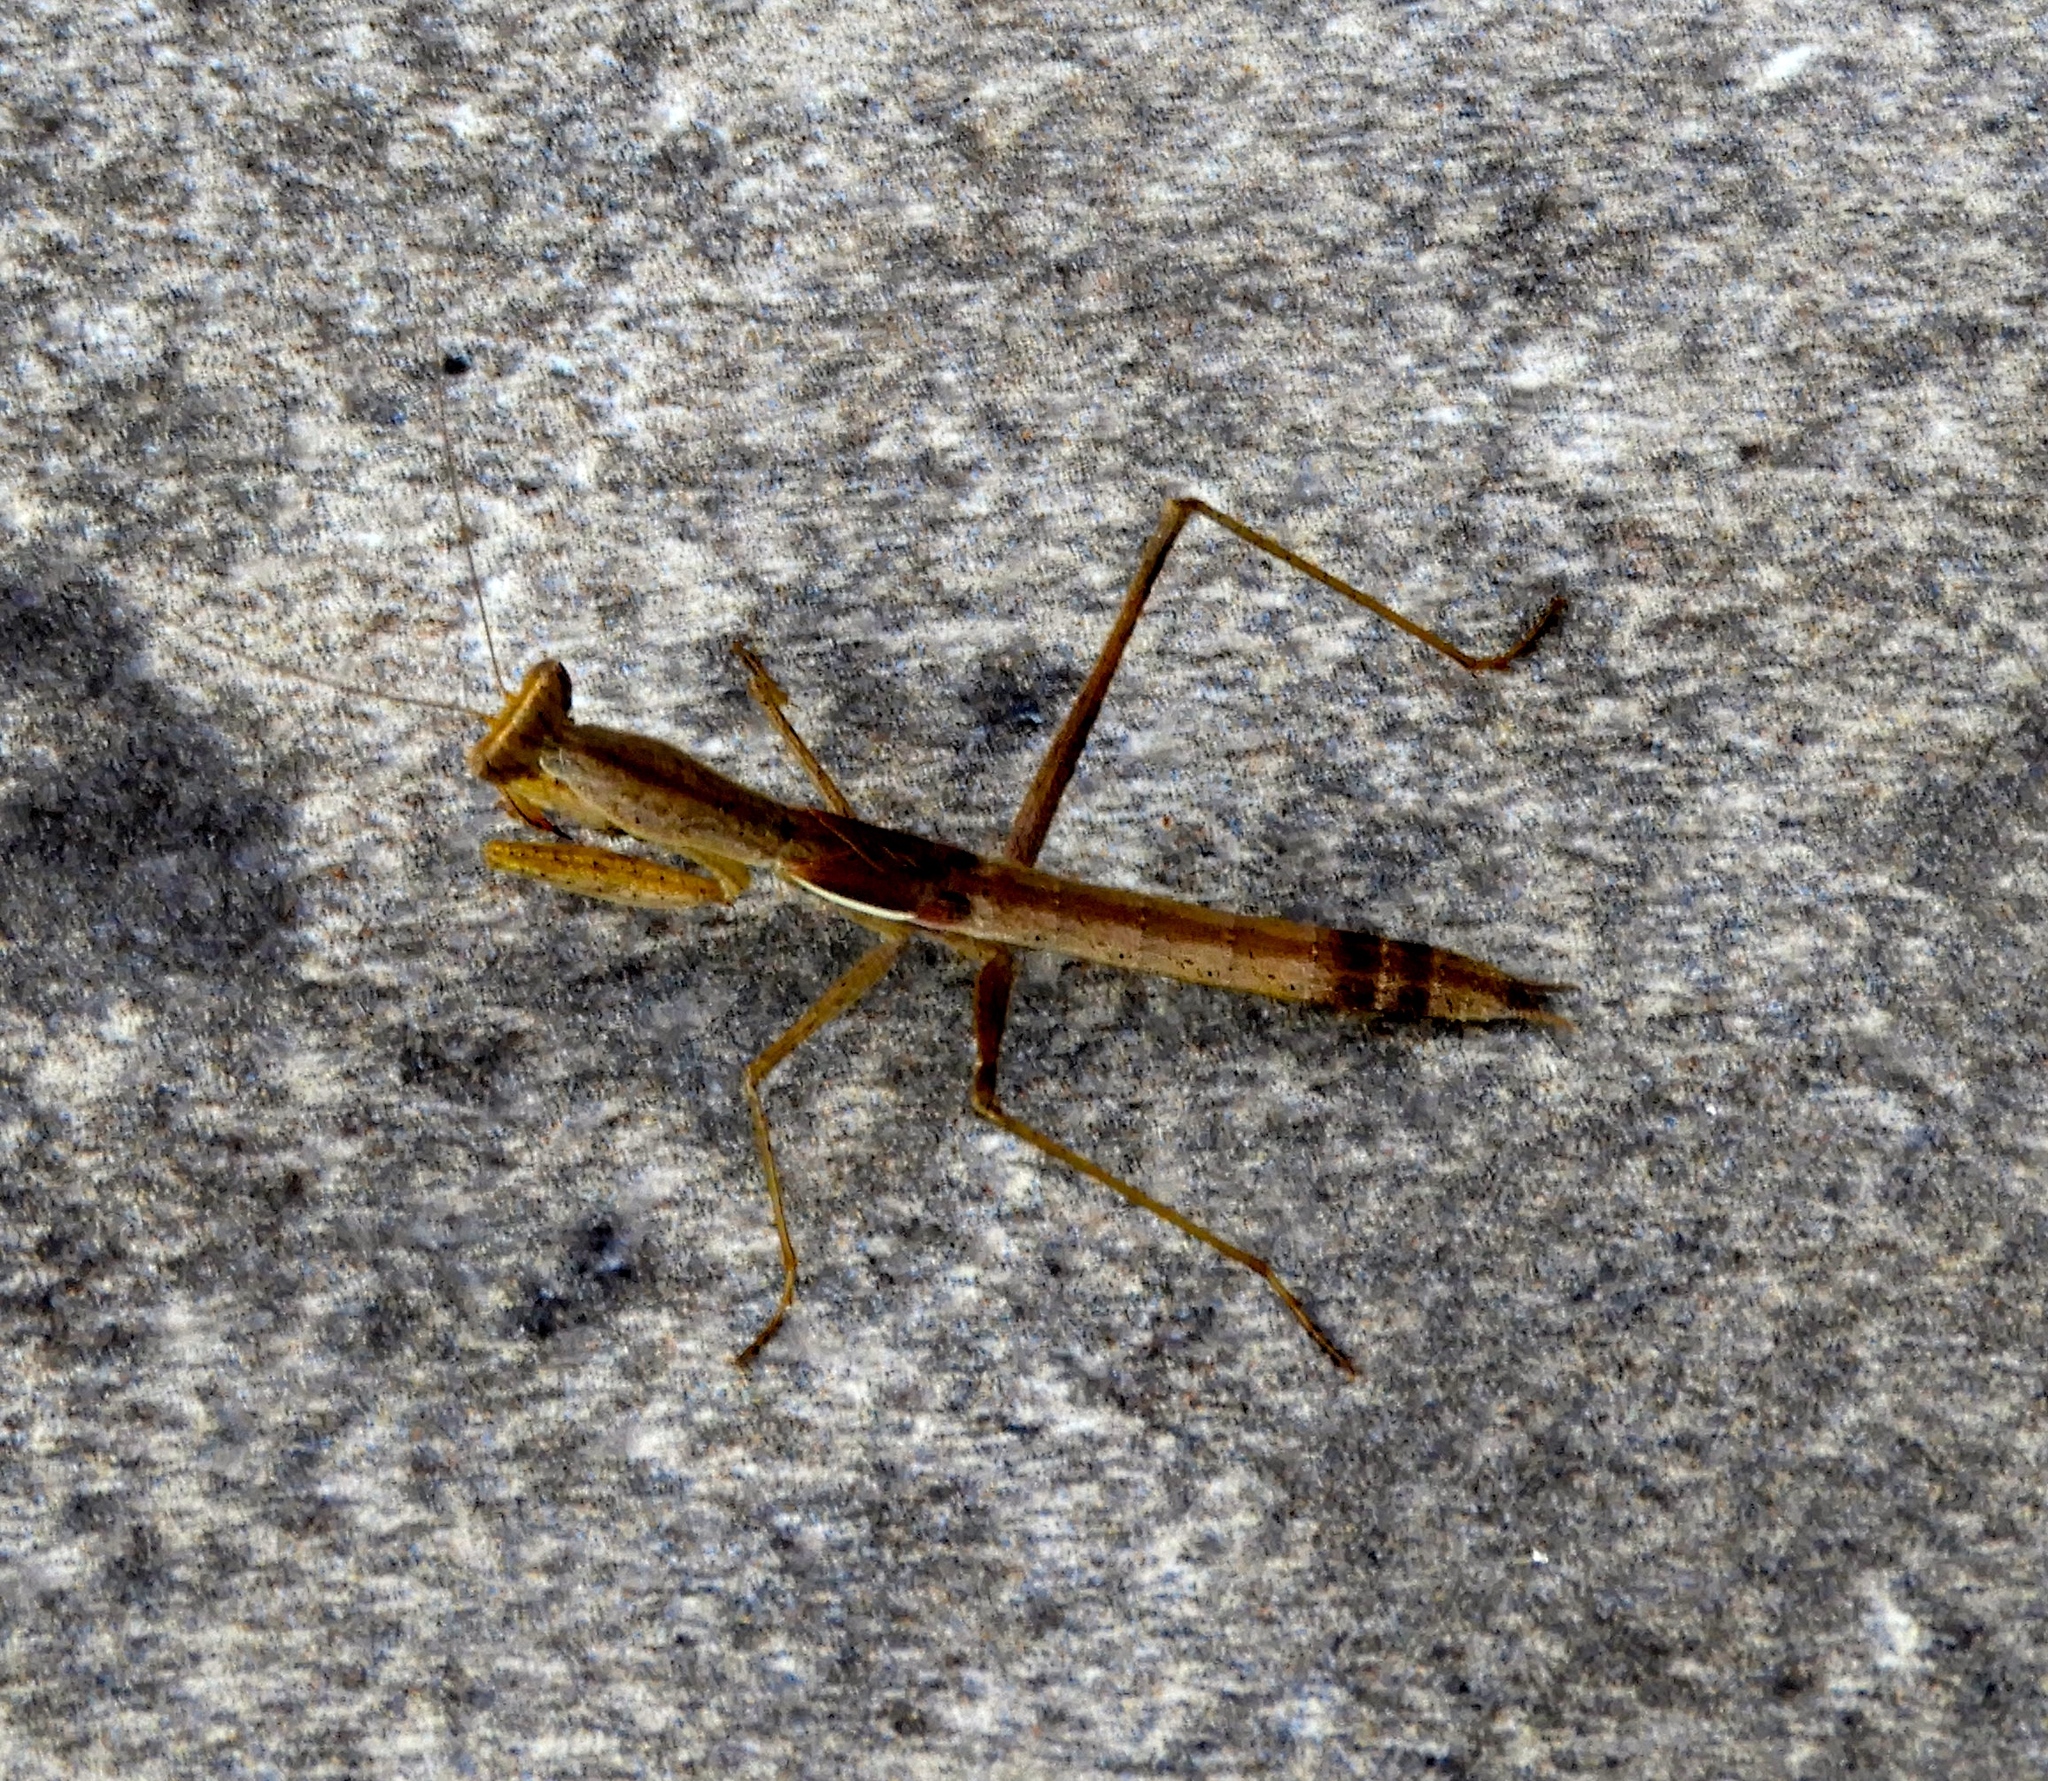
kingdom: Animalia
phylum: Arthropoda
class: Insecta
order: Mantodea
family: Amelidae
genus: Yersinia
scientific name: Yersinia mexicana
